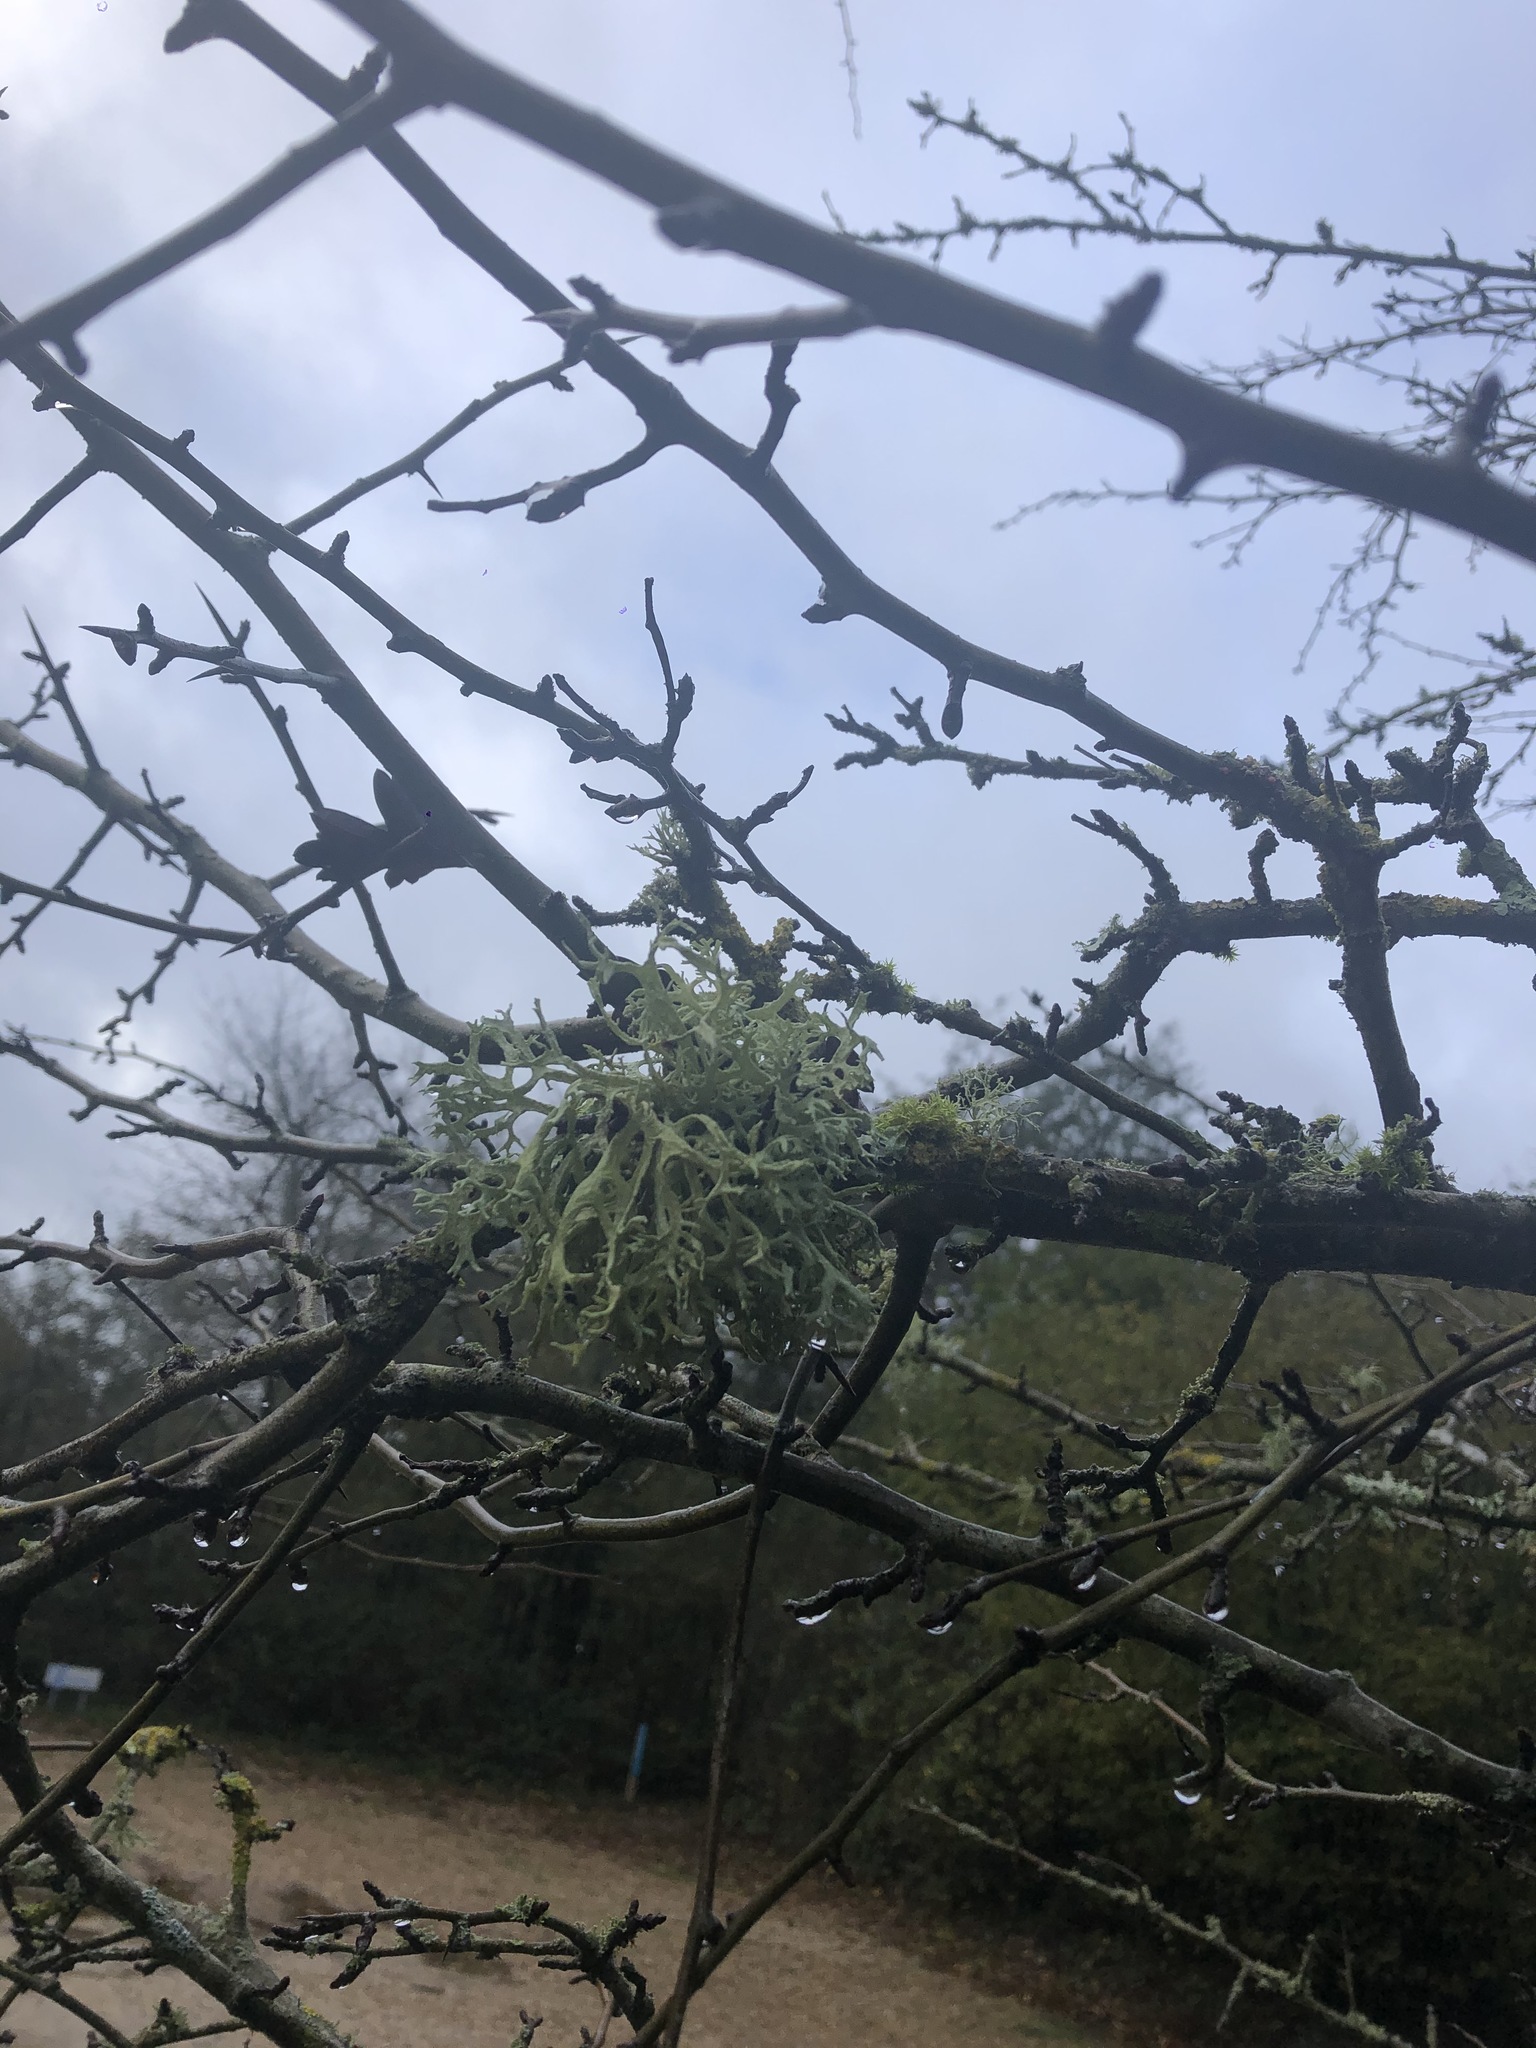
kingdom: Fungi
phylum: Ascomycota
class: Lecanoromycetes
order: Lecanorales
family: Parmeliaceae
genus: Evernia
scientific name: Evernia prunastri
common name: Oak moss
